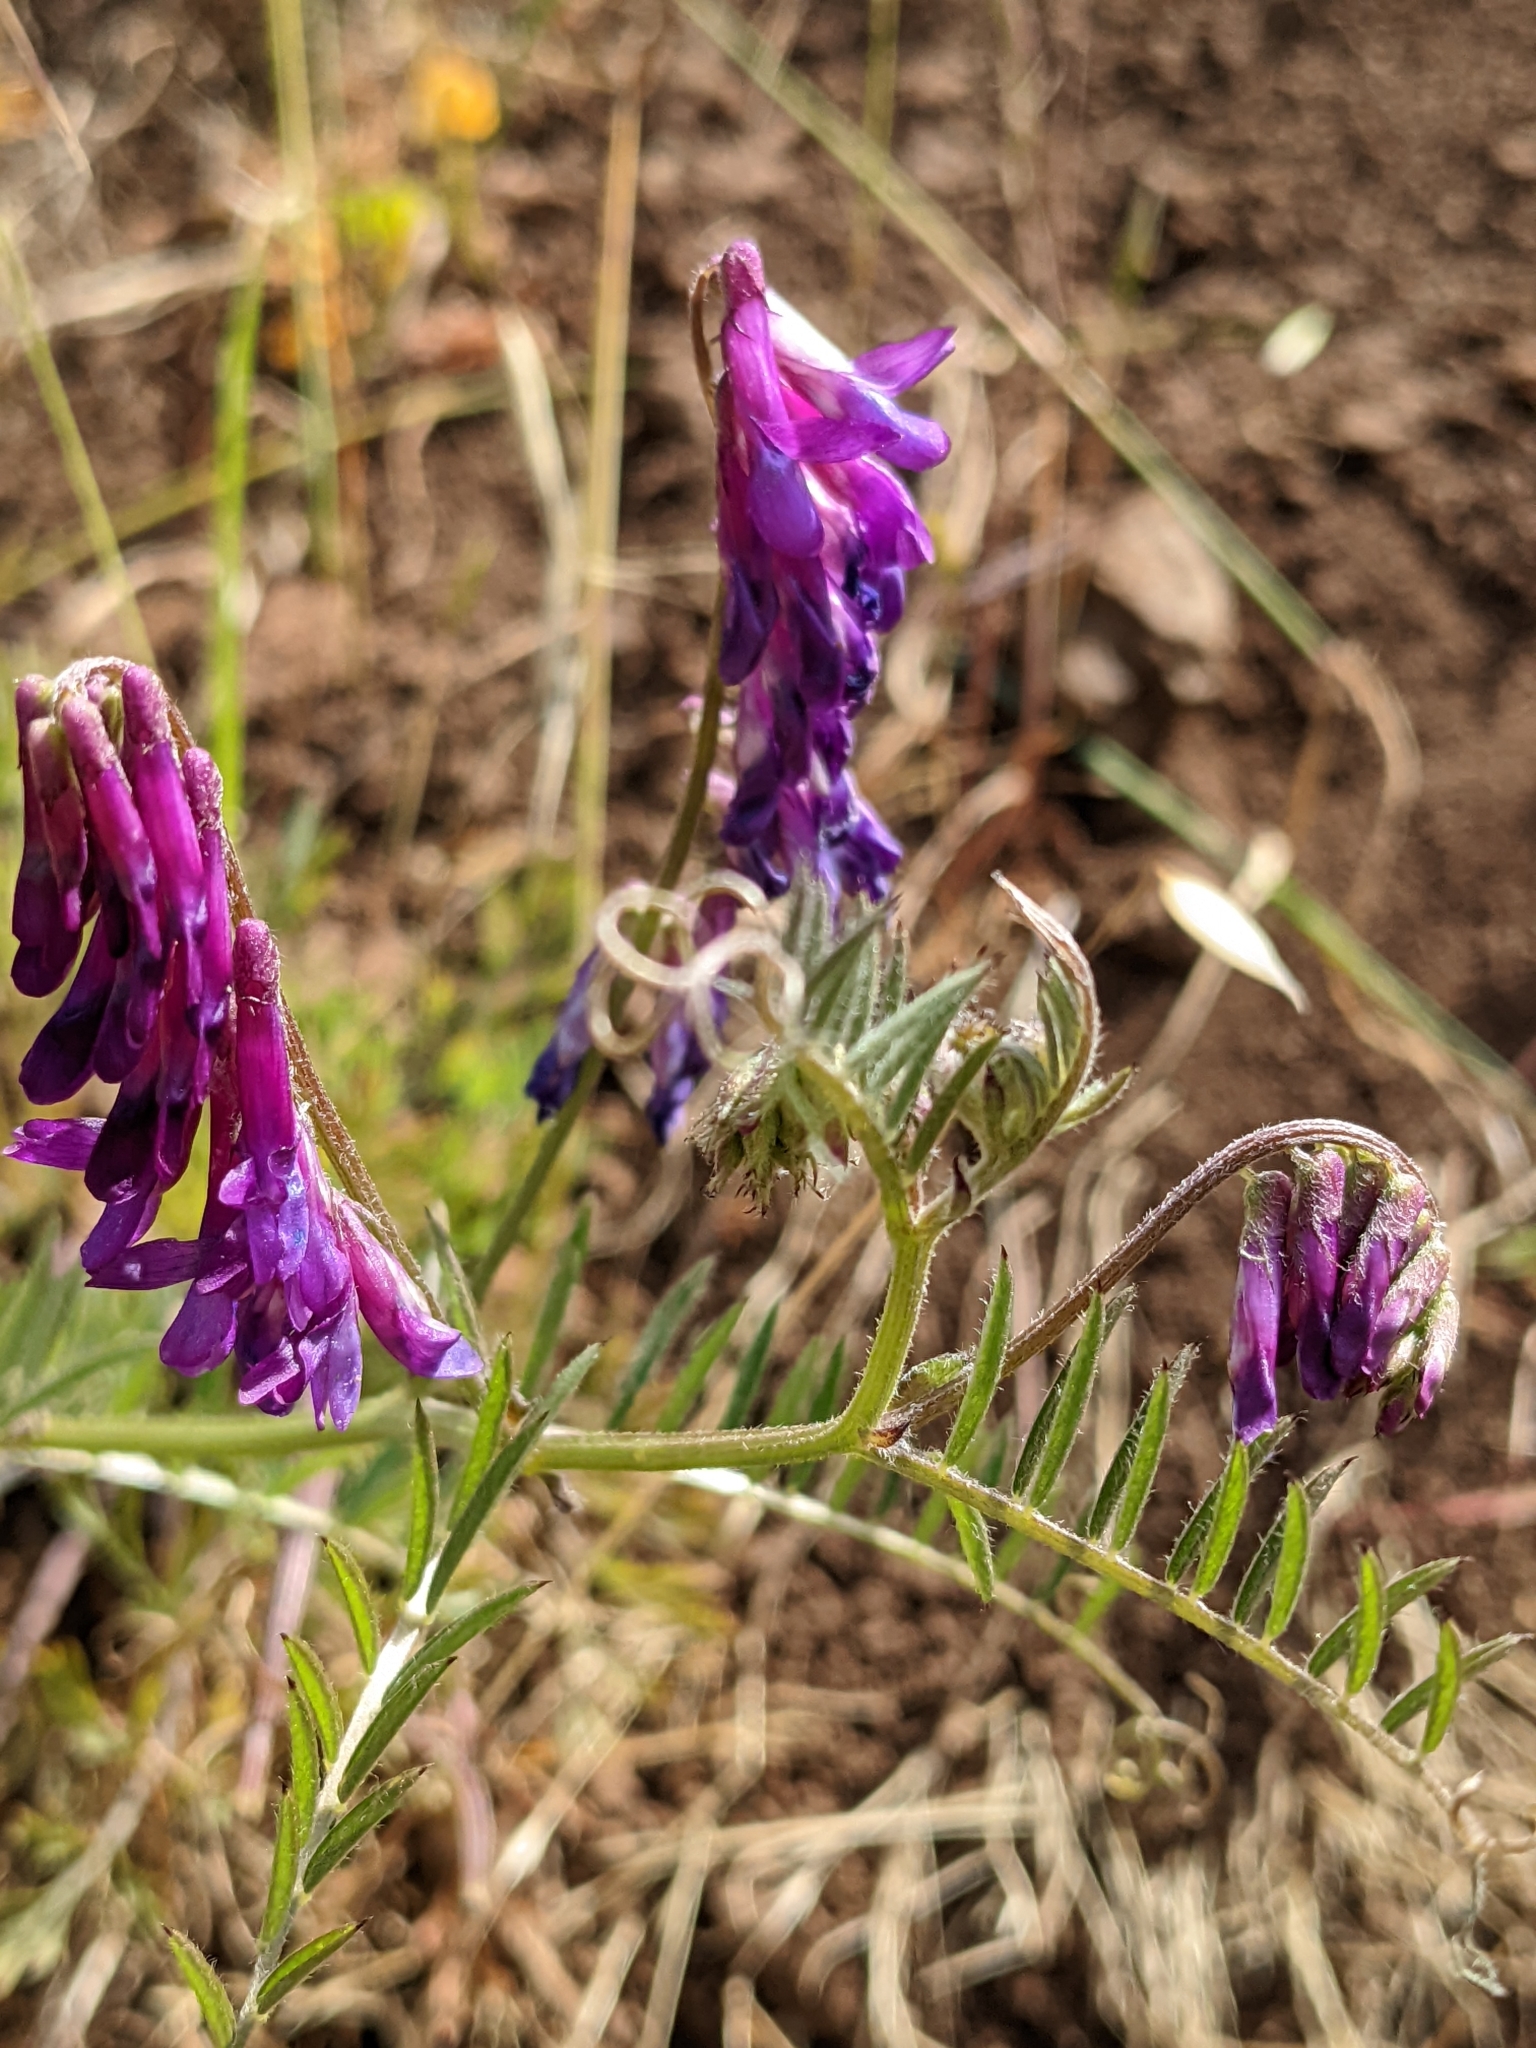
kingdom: Plantae
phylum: Tracheophyta
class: Magnoliopsida
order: Fabales
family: Fabaceae
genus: Vicia
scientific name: Vicia villosa
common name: Fodder vetch
